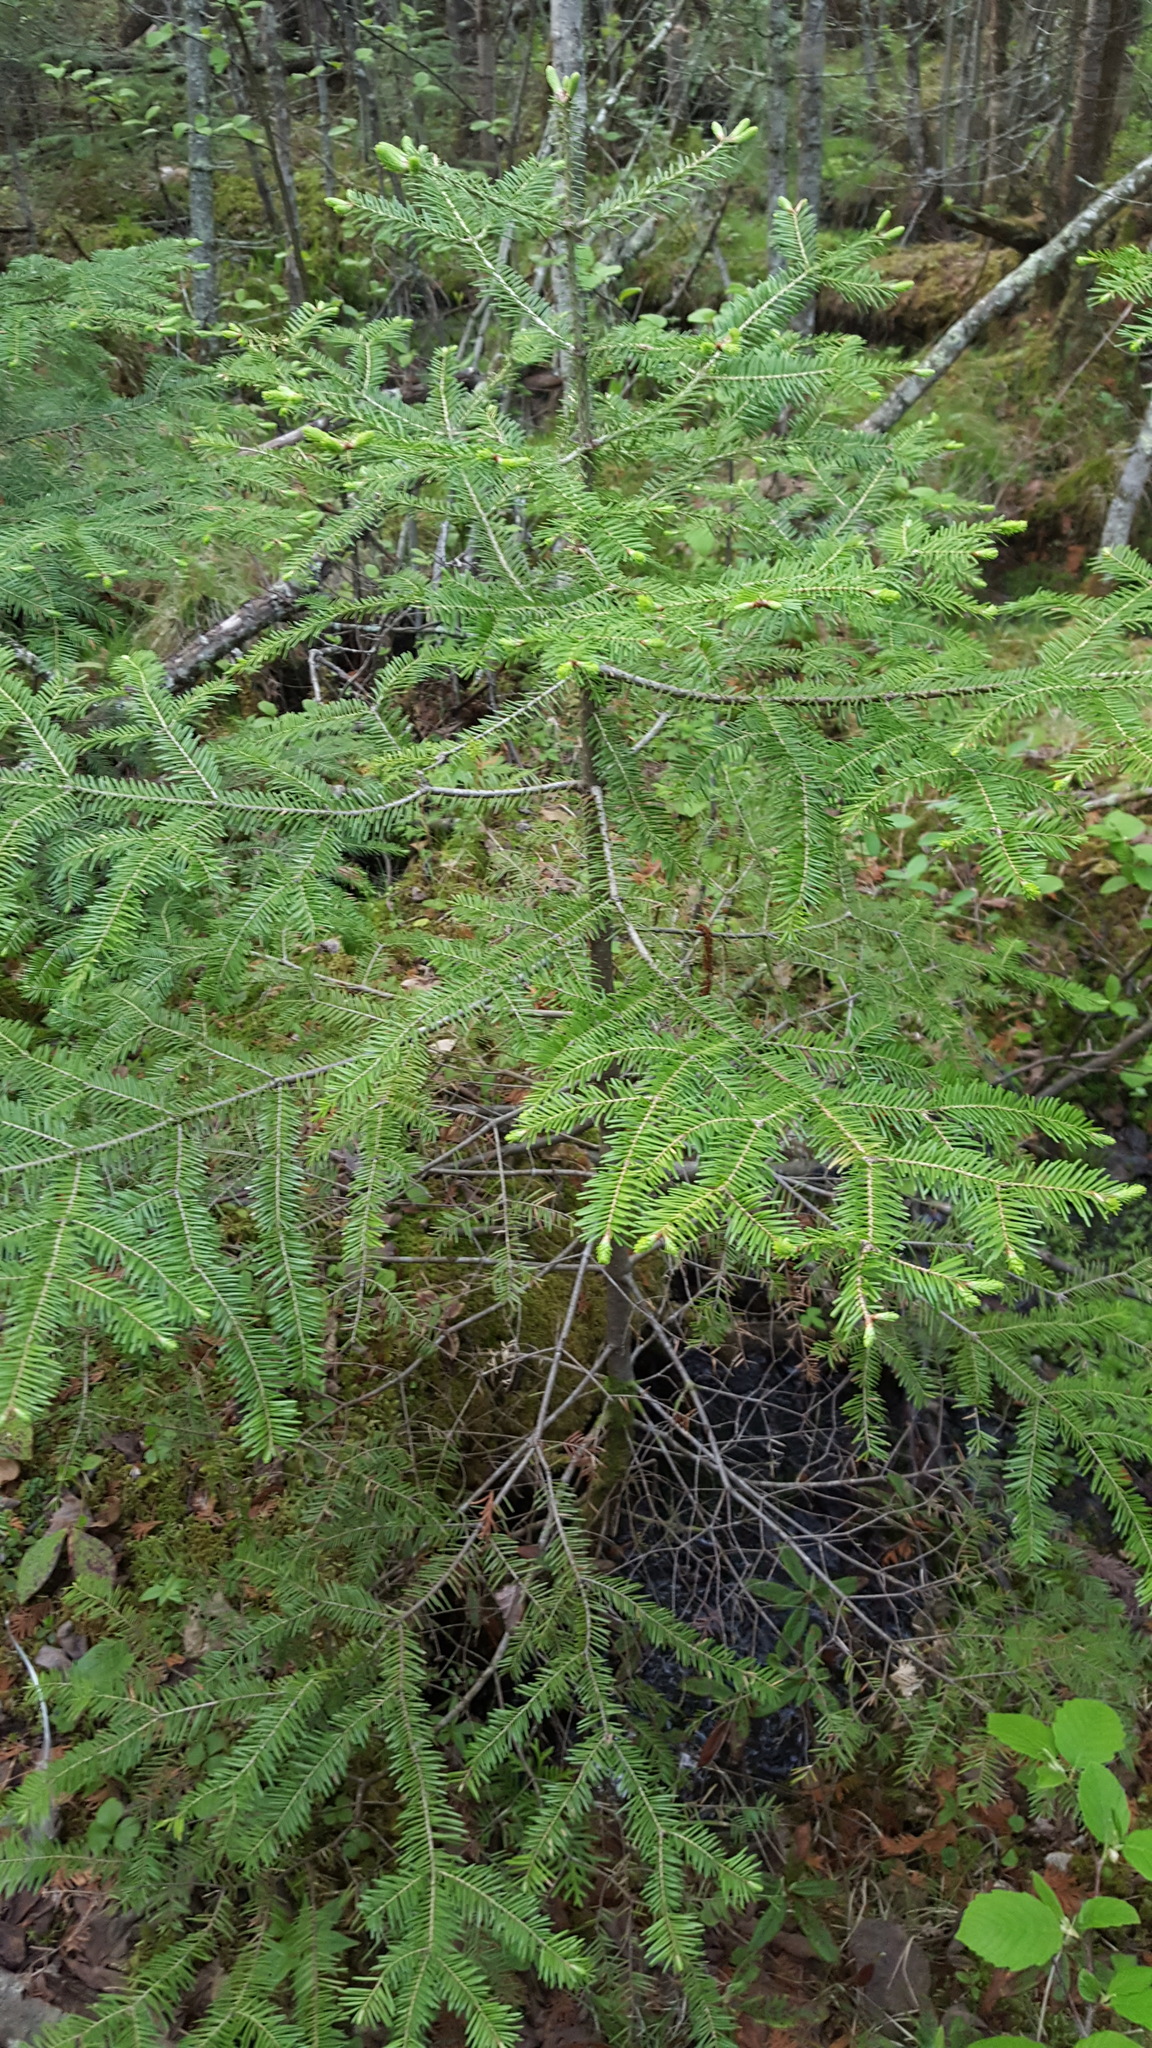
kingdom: Plantae
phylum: Tracheophyta
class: Pinopsida
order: Pinales
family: Pinaceae
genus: Abies
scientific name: Abies balsamea
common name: Balsam fir
